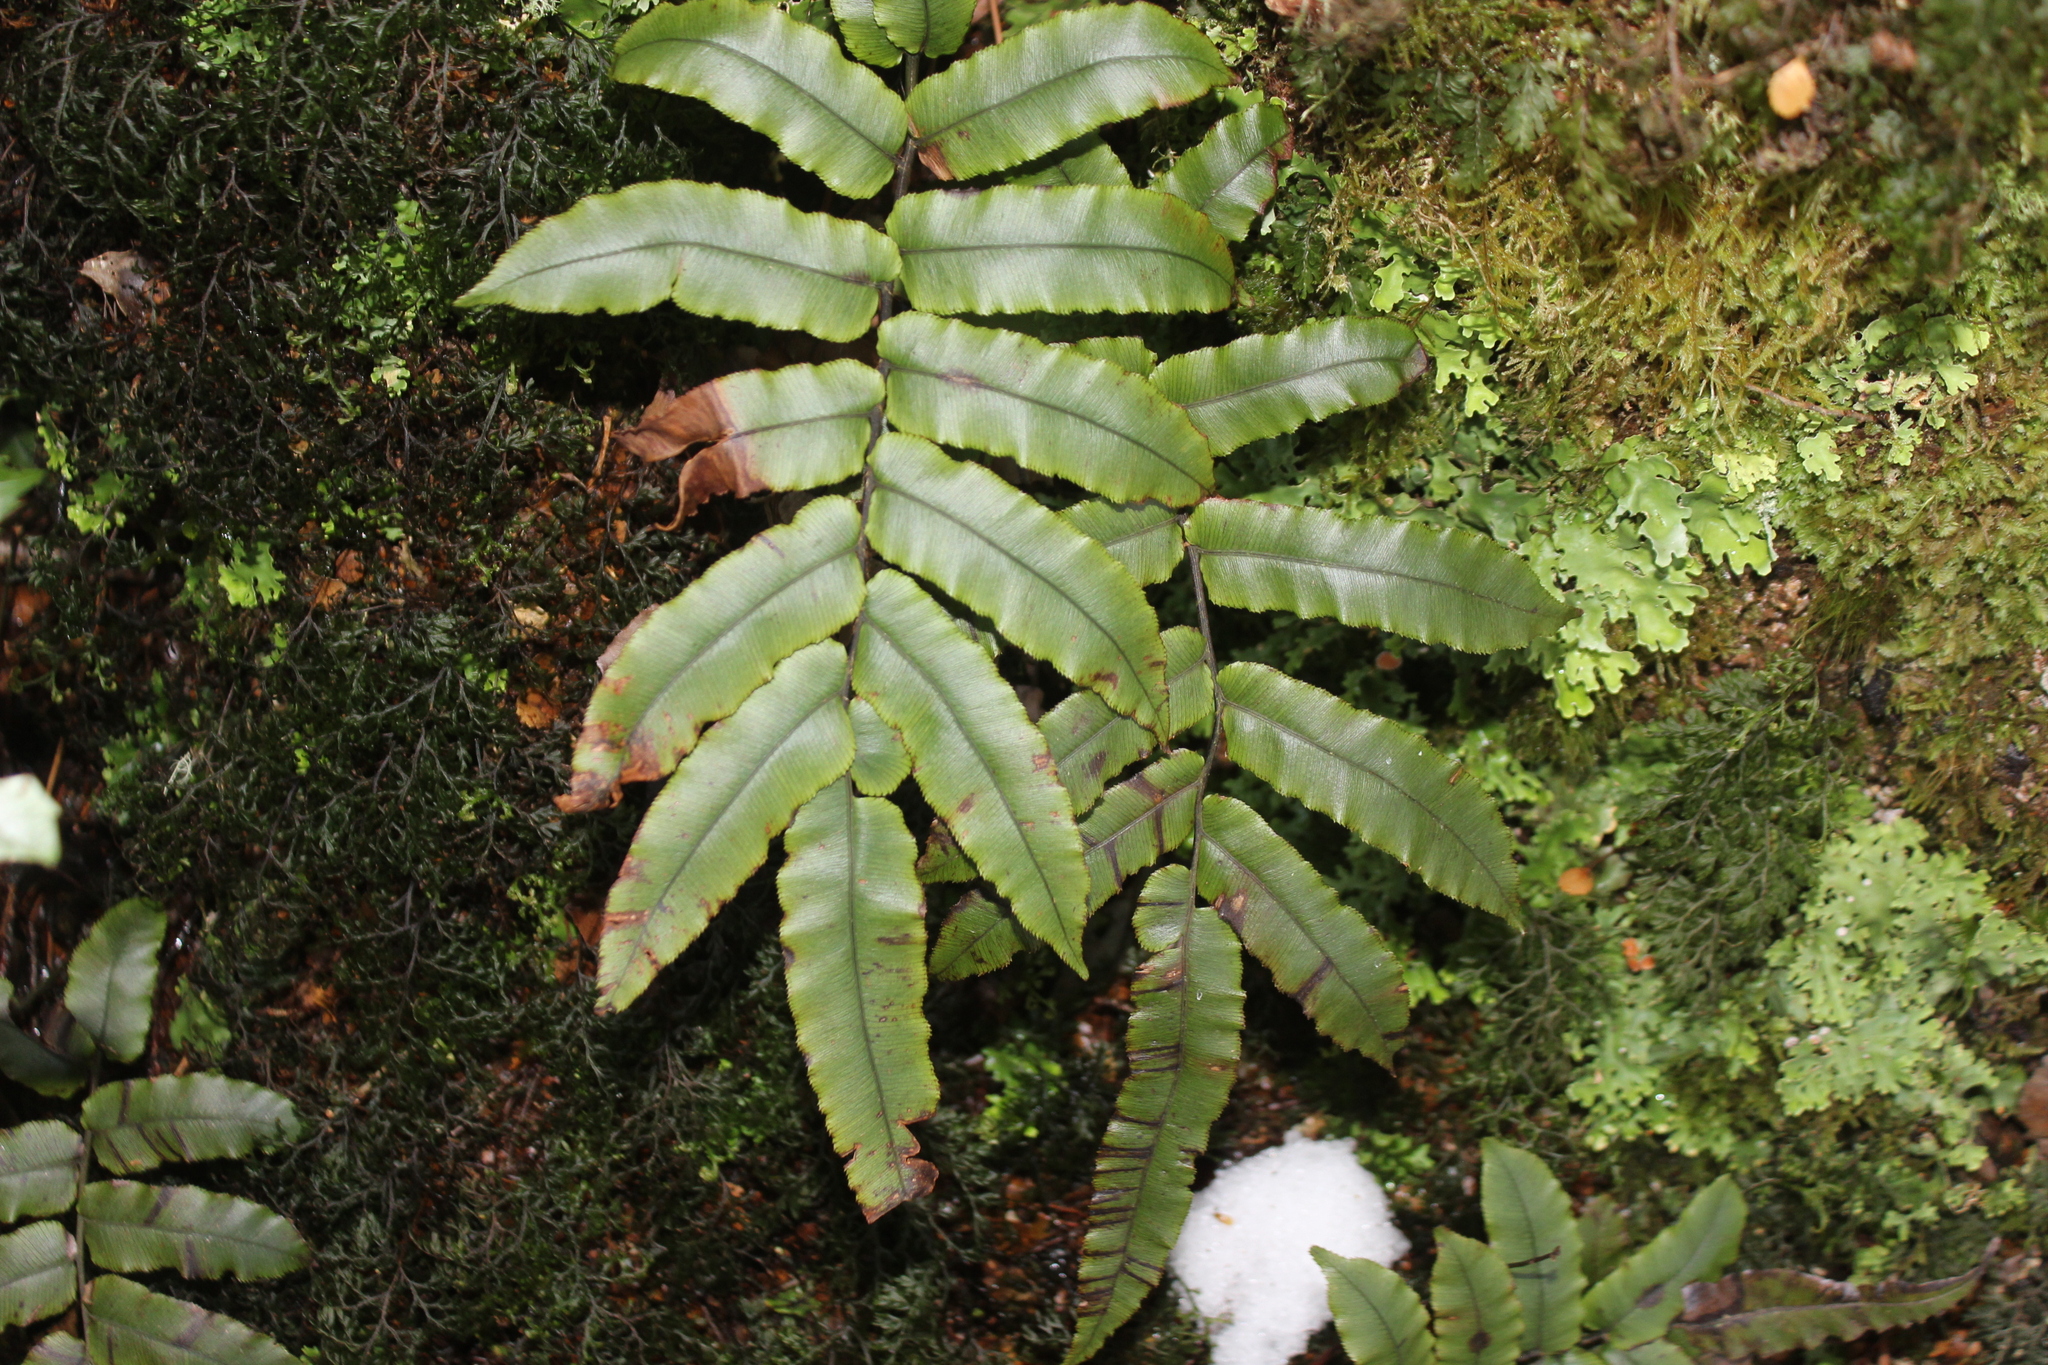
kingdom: Plantae
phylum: Tracheophyta
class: Polypodiopsida
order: Polypodiales
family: Blechnaceae
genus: Parablechnum
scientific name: Parablechnum procerum
